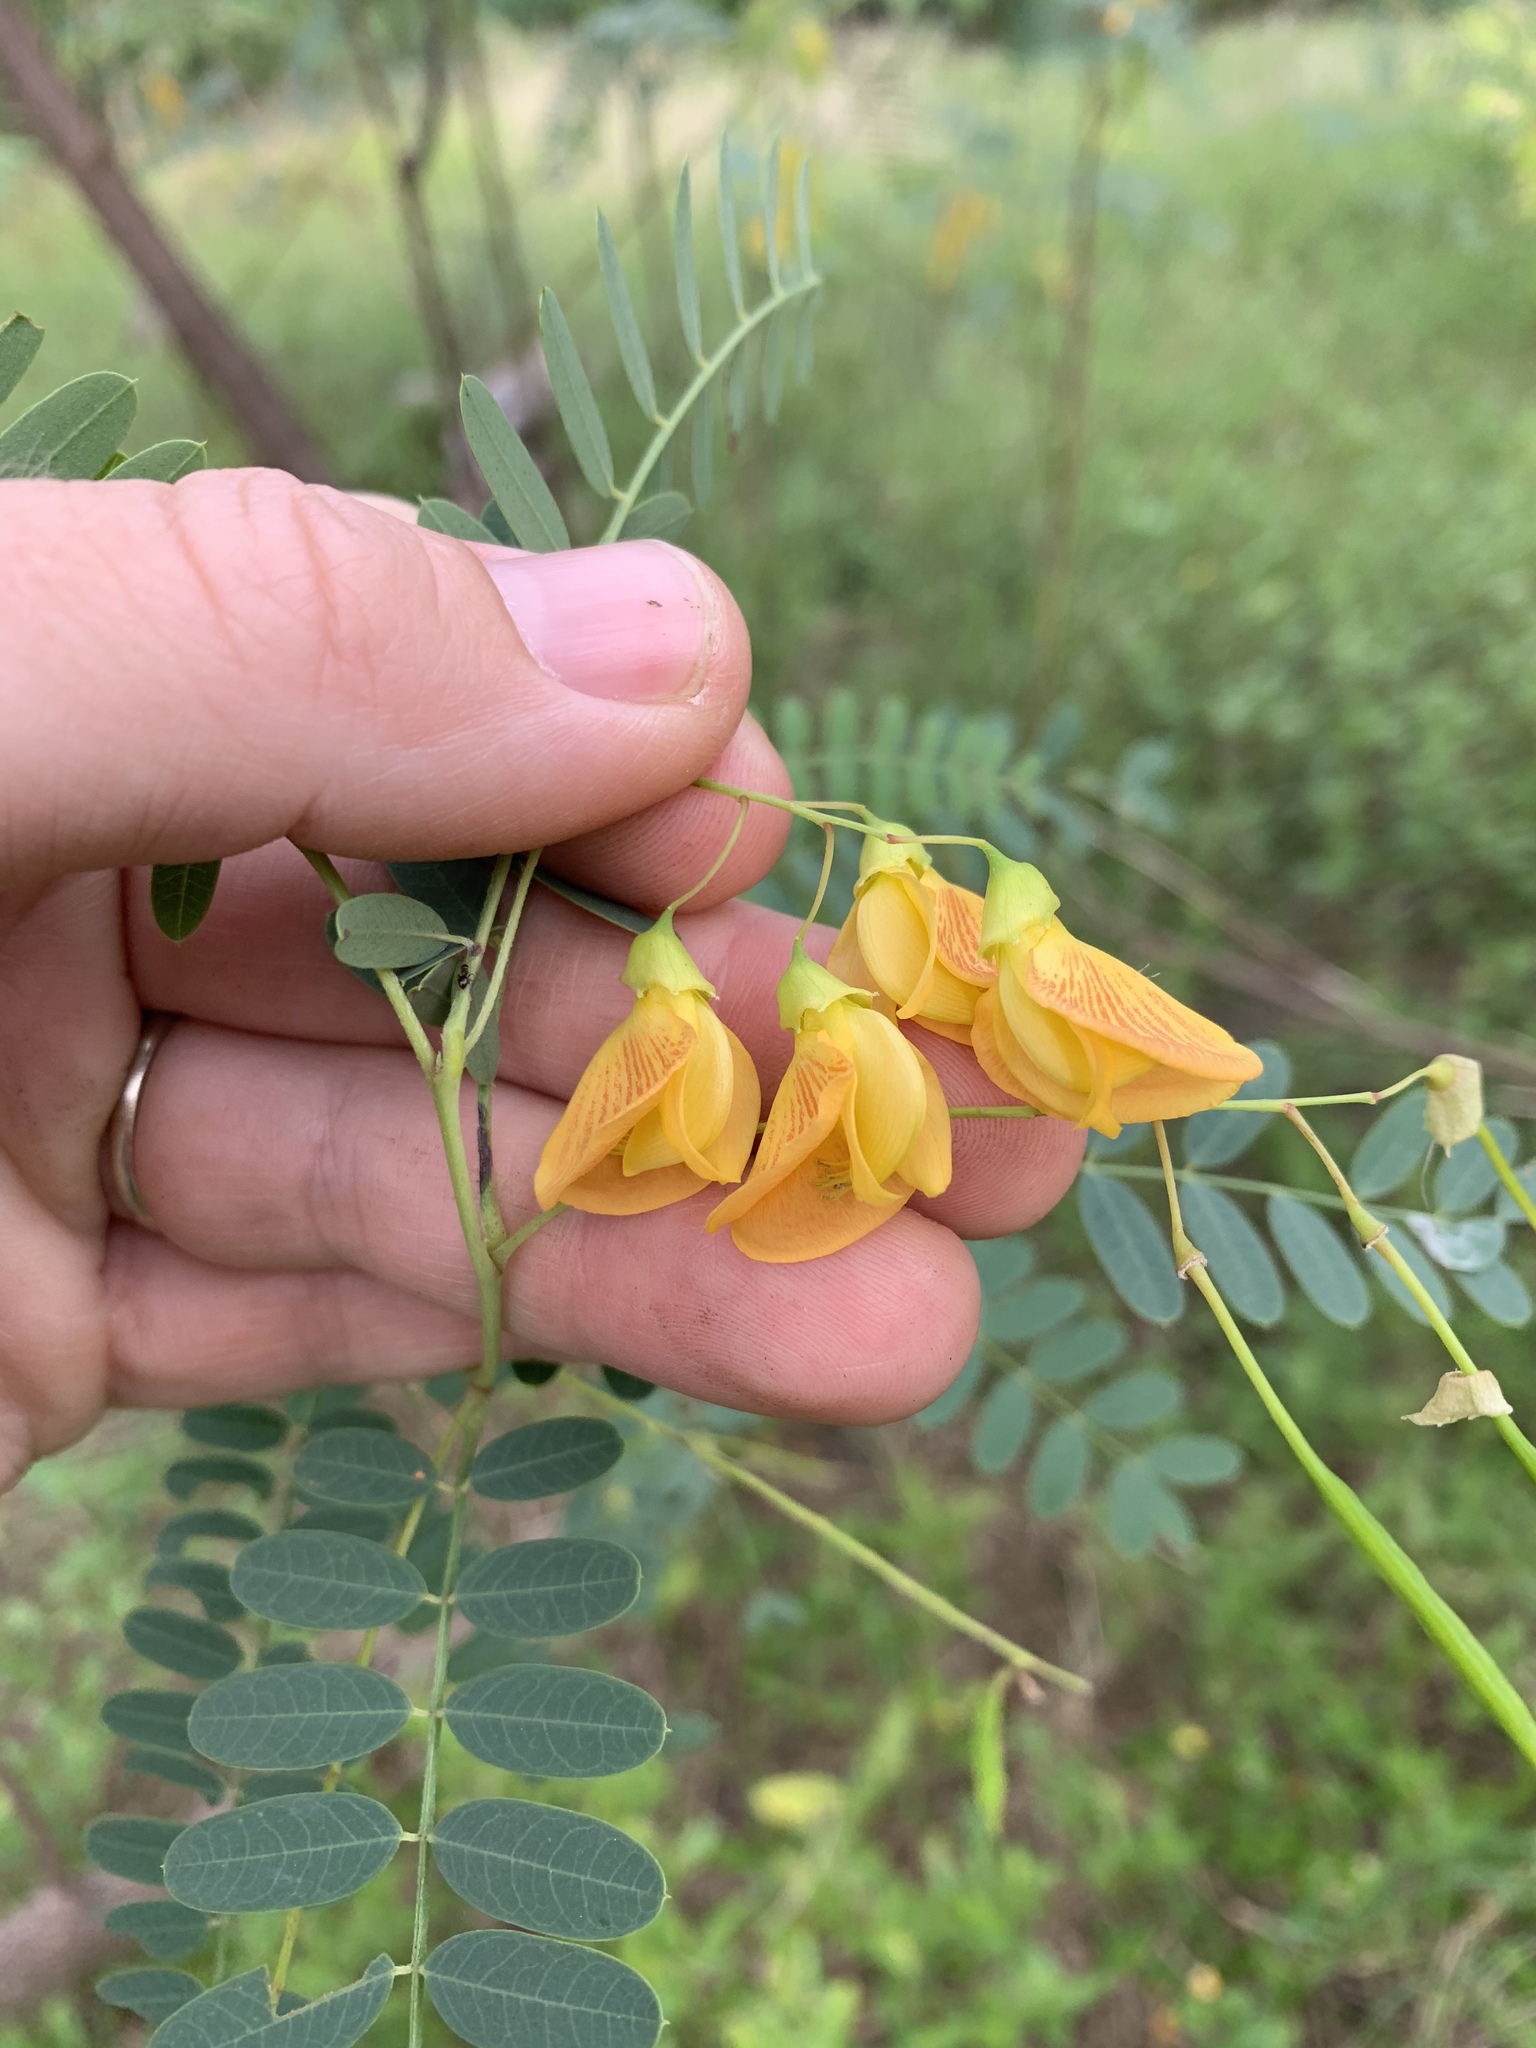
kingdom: Plantae
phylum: Tracheophyta
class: Magnoliopsida
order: Fabales
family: Fabaceae
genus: Sesbania
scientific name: Sesbania drummondii
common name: Poison-bean
